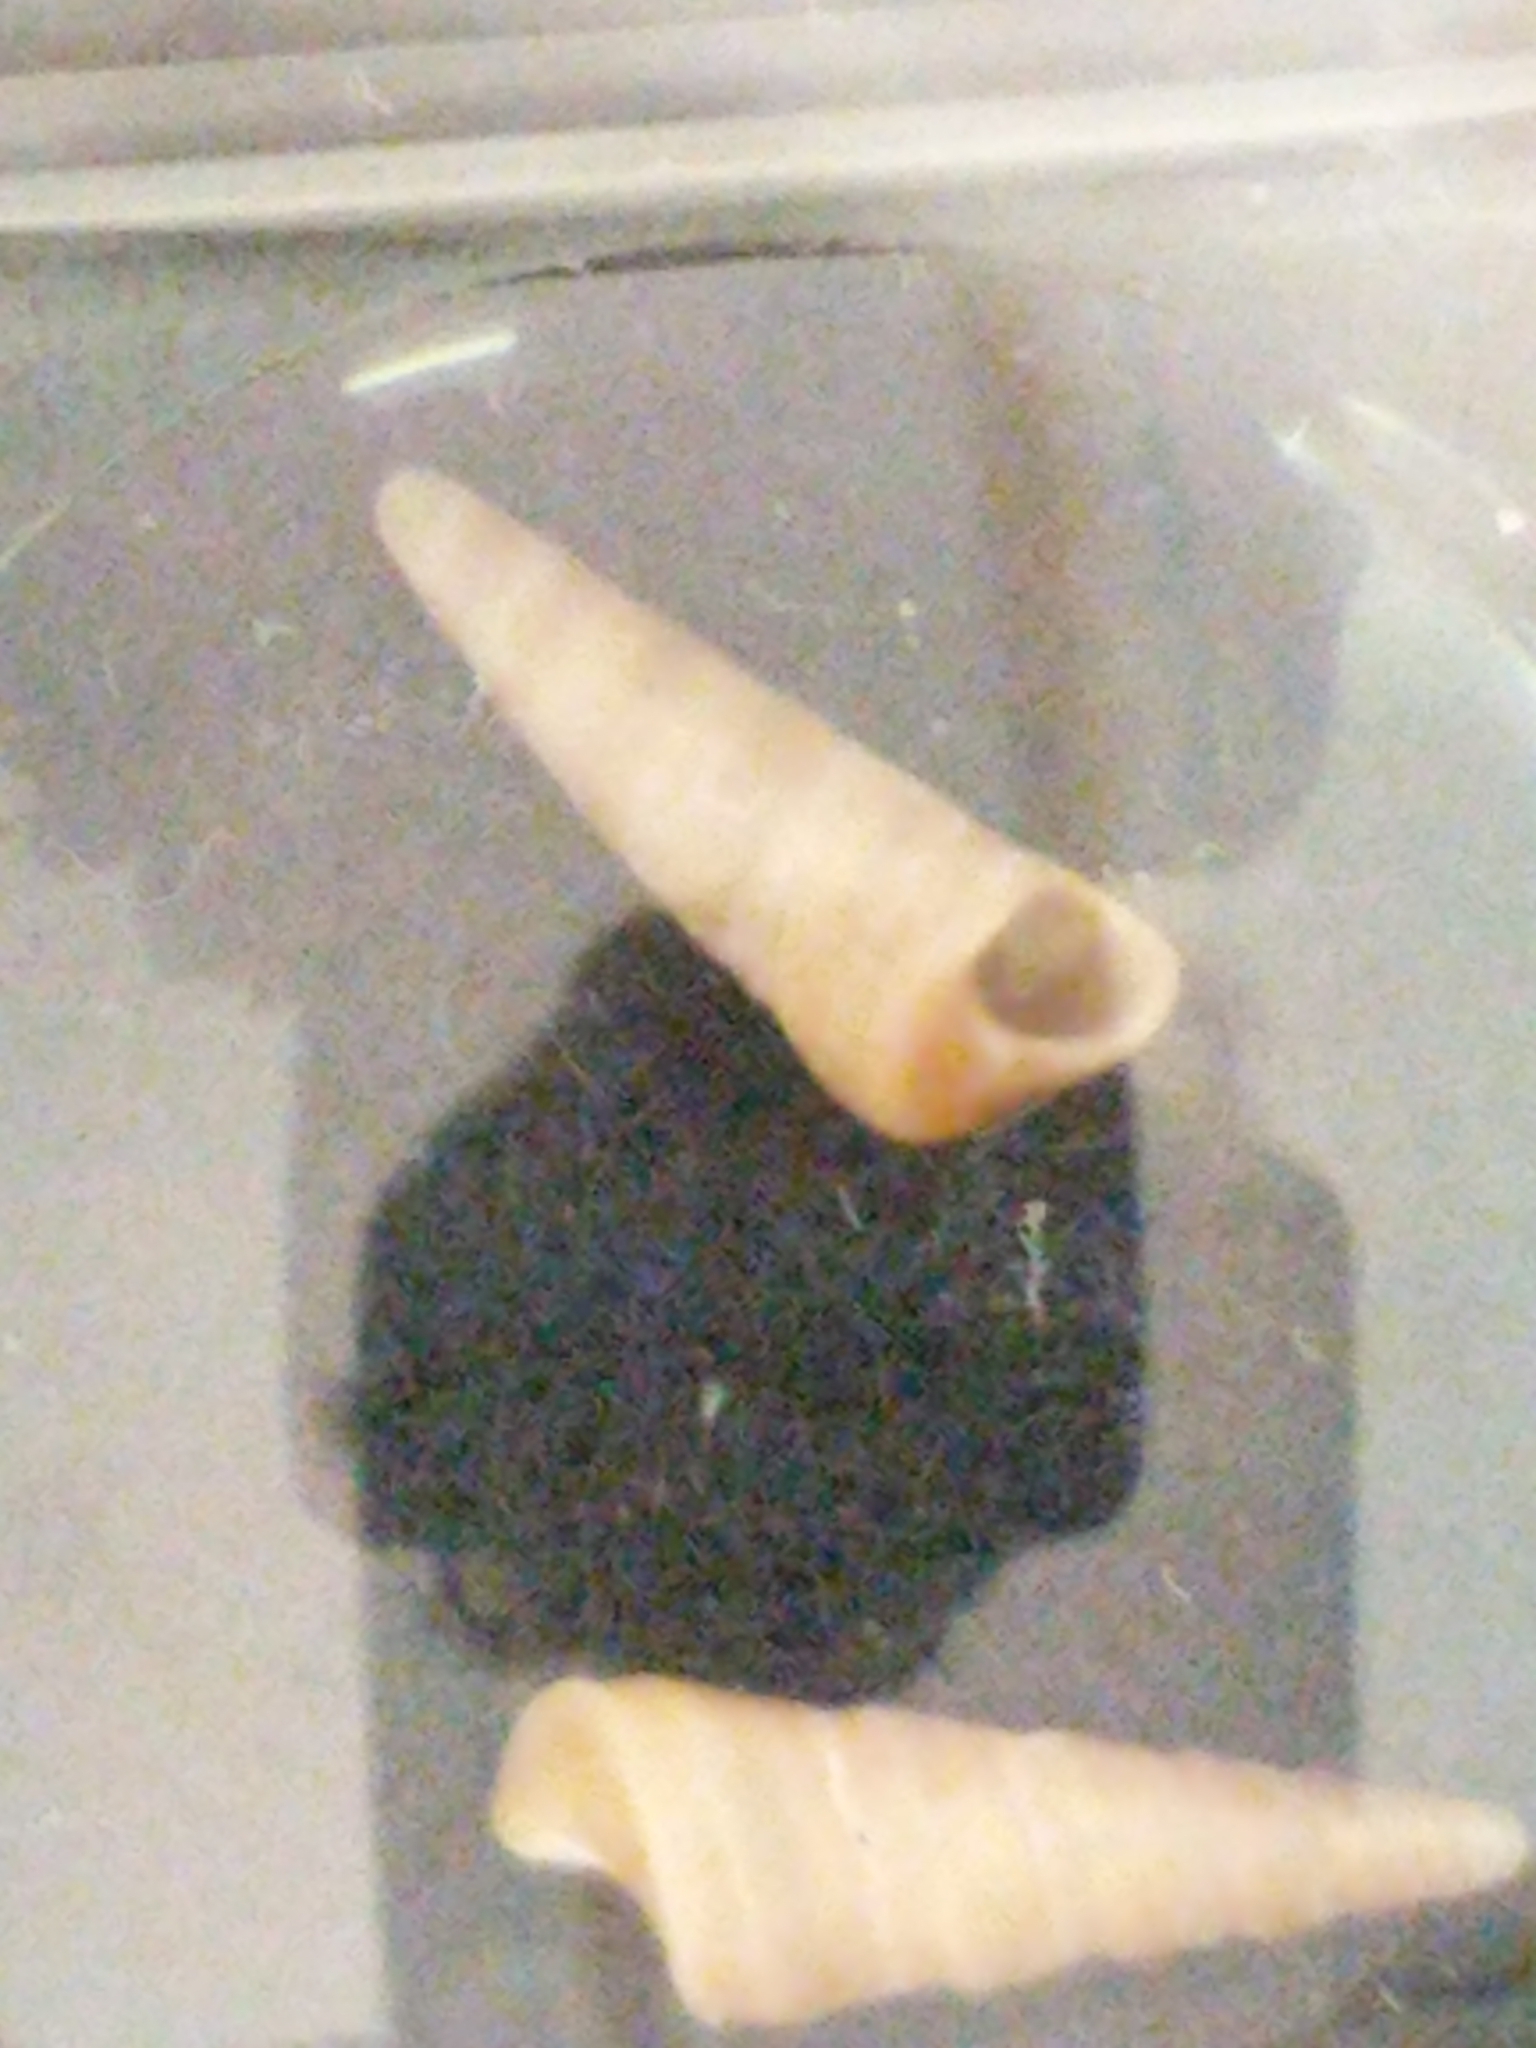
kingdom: Animalia
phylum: Mollusca
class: Gastropoda
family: Turritellidae
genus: Turritella
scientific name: Turritella exoleta
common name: Eastern turretsnail
